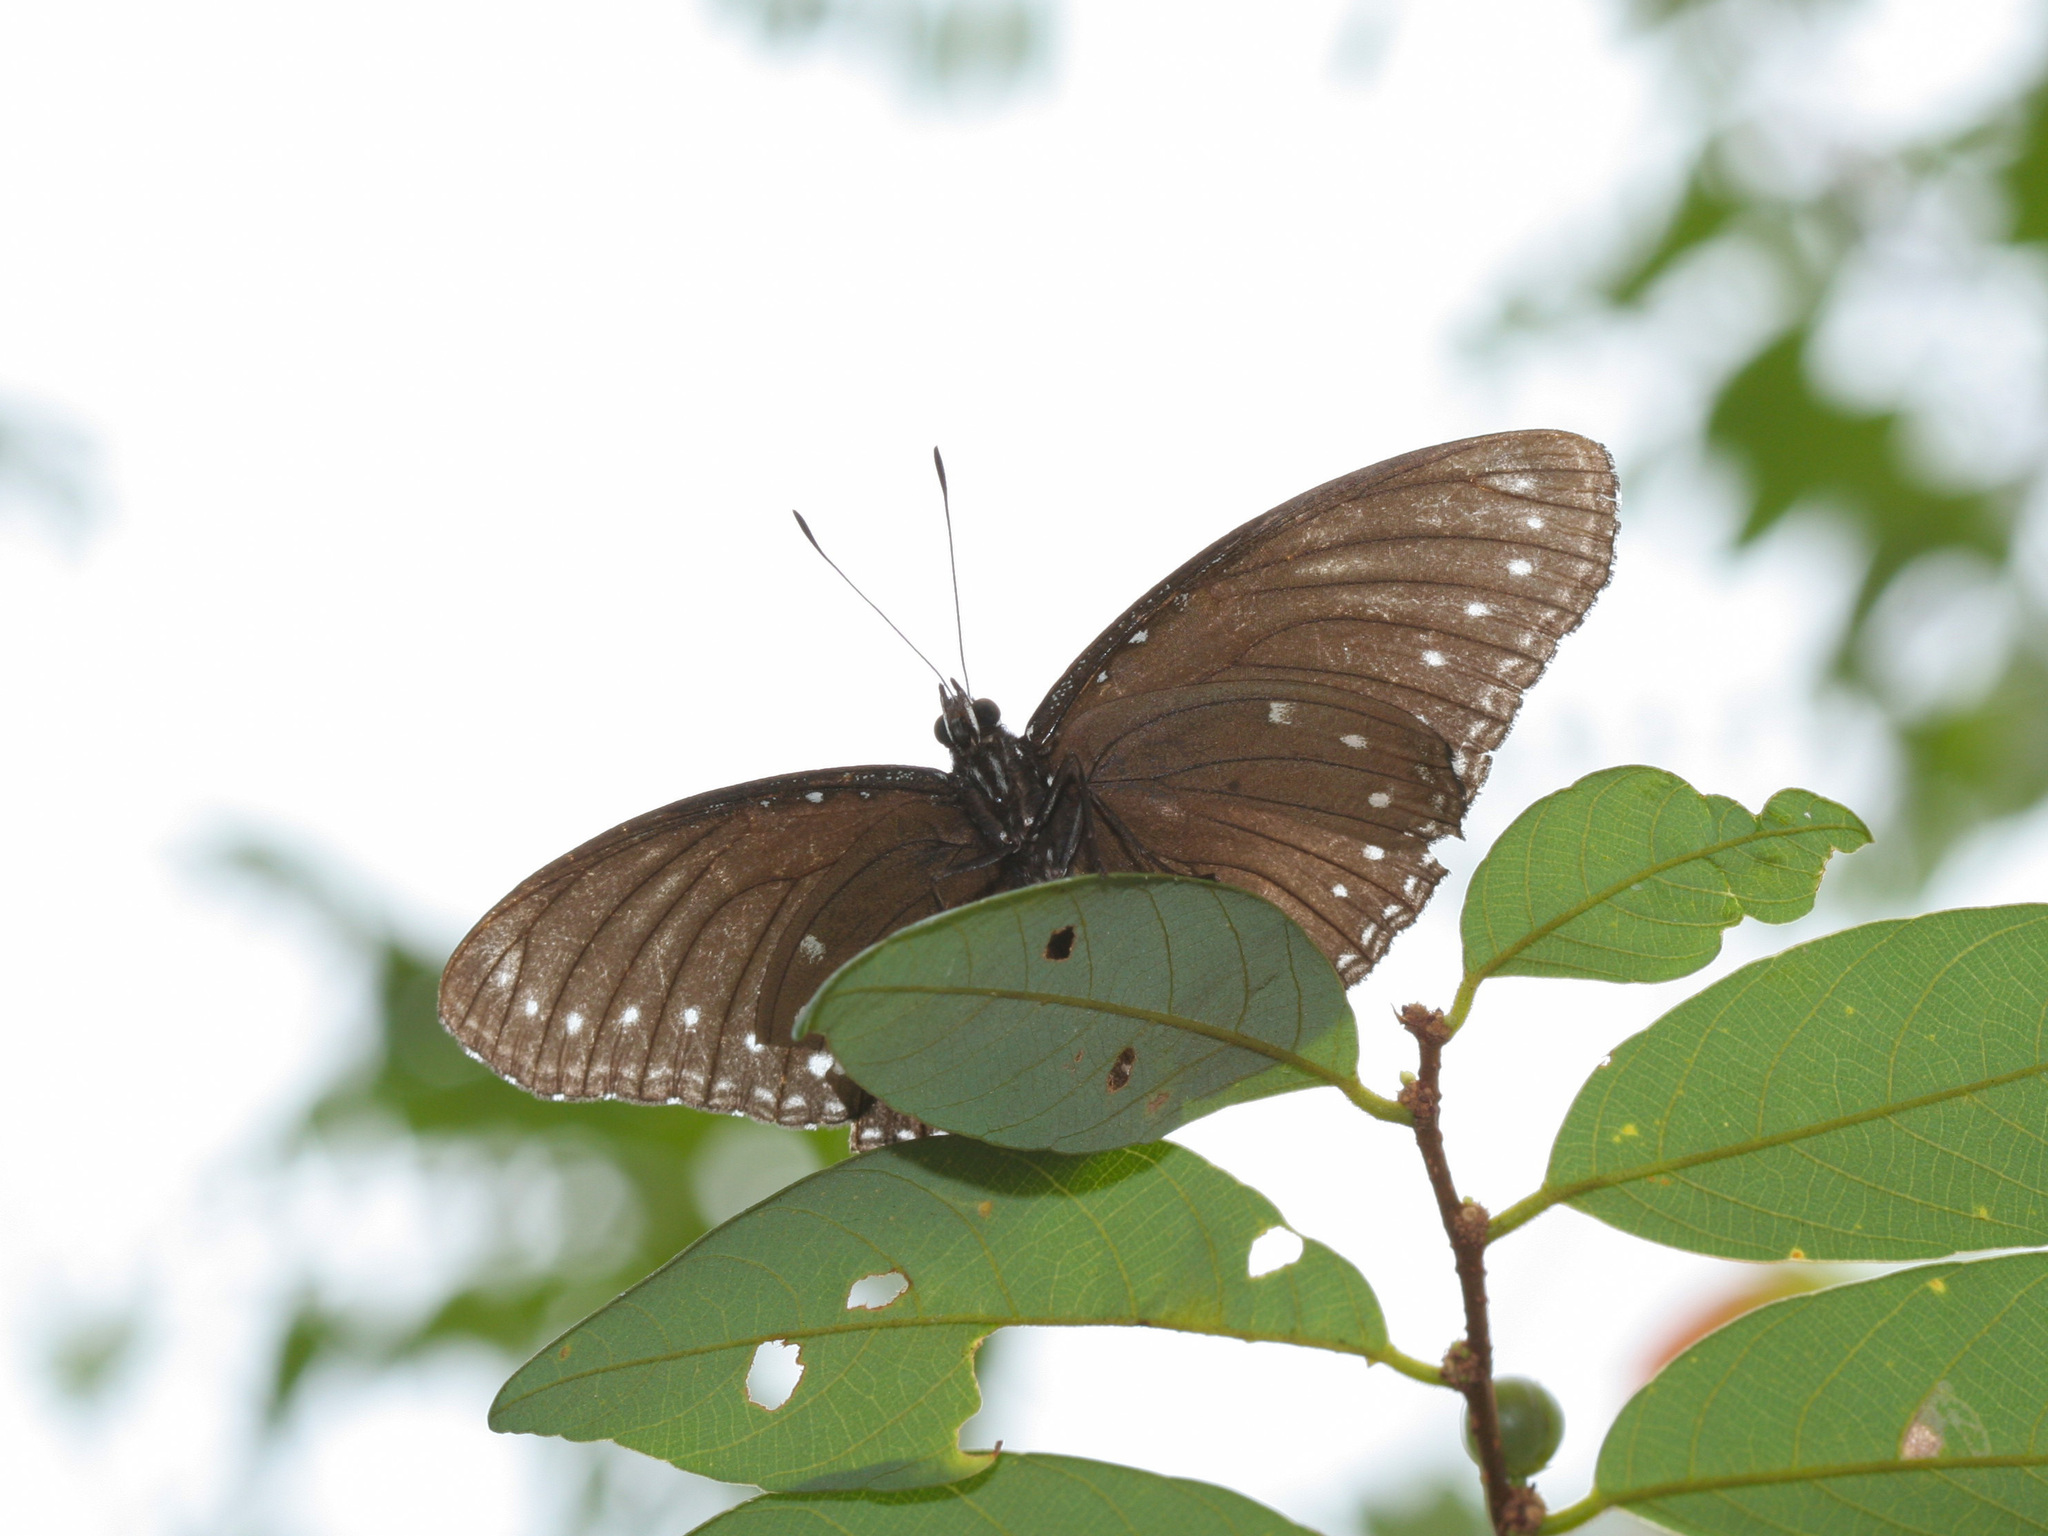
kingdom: Animalia
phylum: Arthropoda
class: Insecta
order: Lepidoptera
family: Nymphalidae
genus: Hypolimnas
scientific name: Hypolimnas anomala
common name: Malayan eggfly
